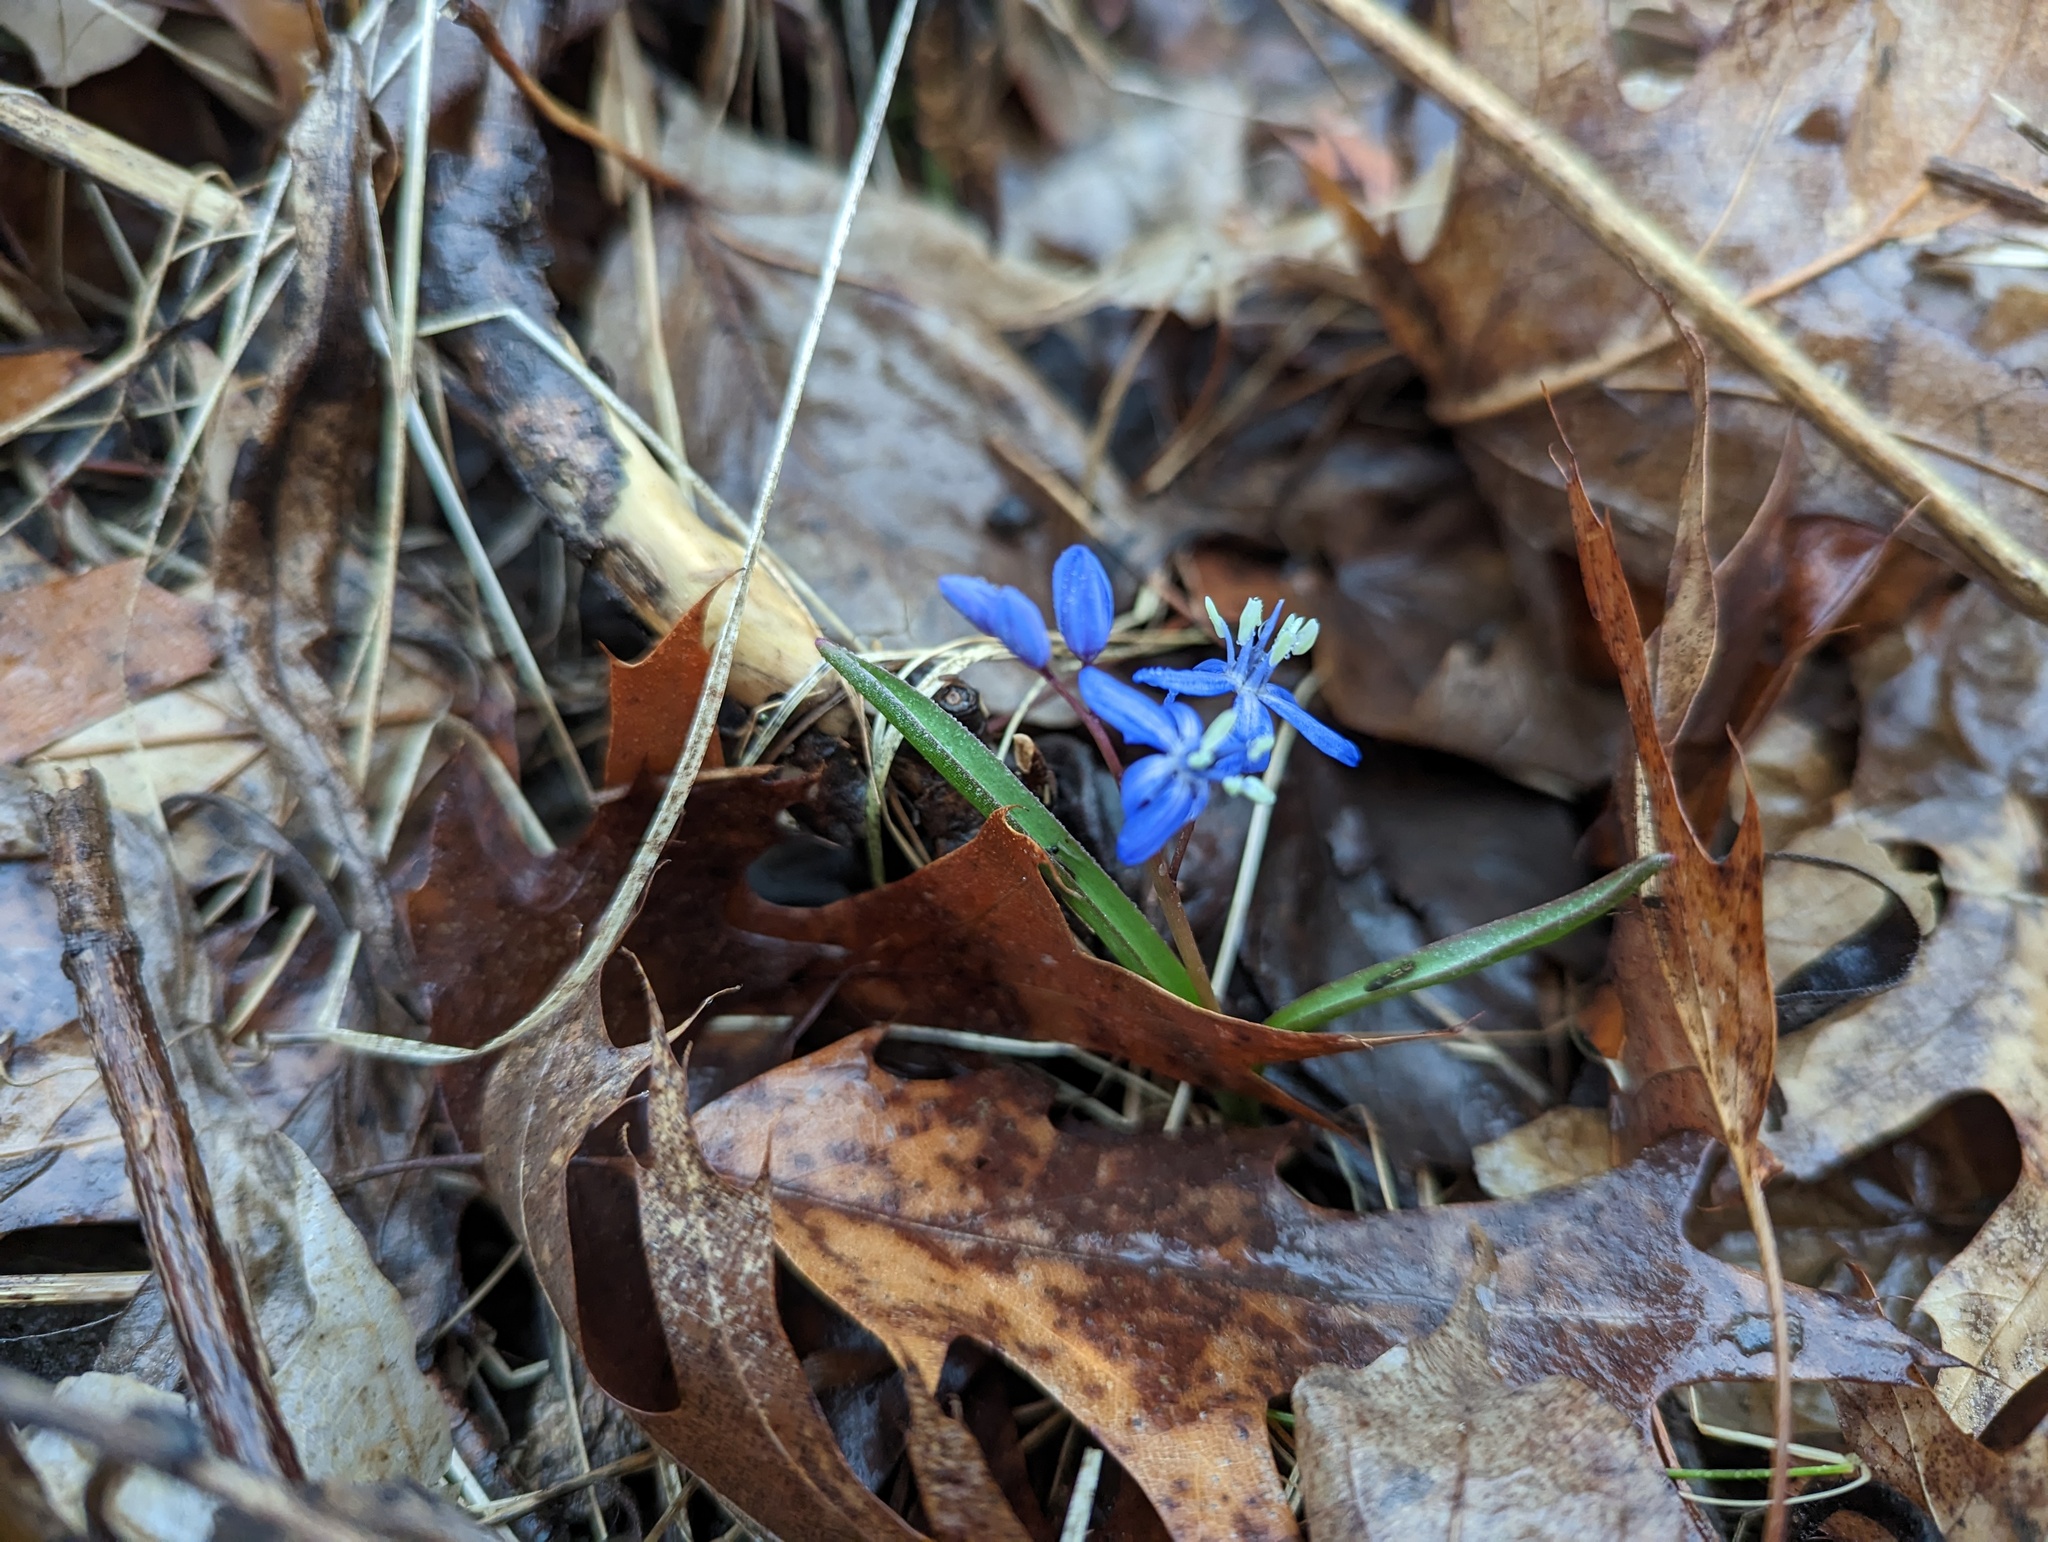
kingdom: Plantae
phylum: Tracheophyta
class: Liliopsida
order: Asparagales
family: Asparagaceae
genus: Scilla
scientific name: Scilla
